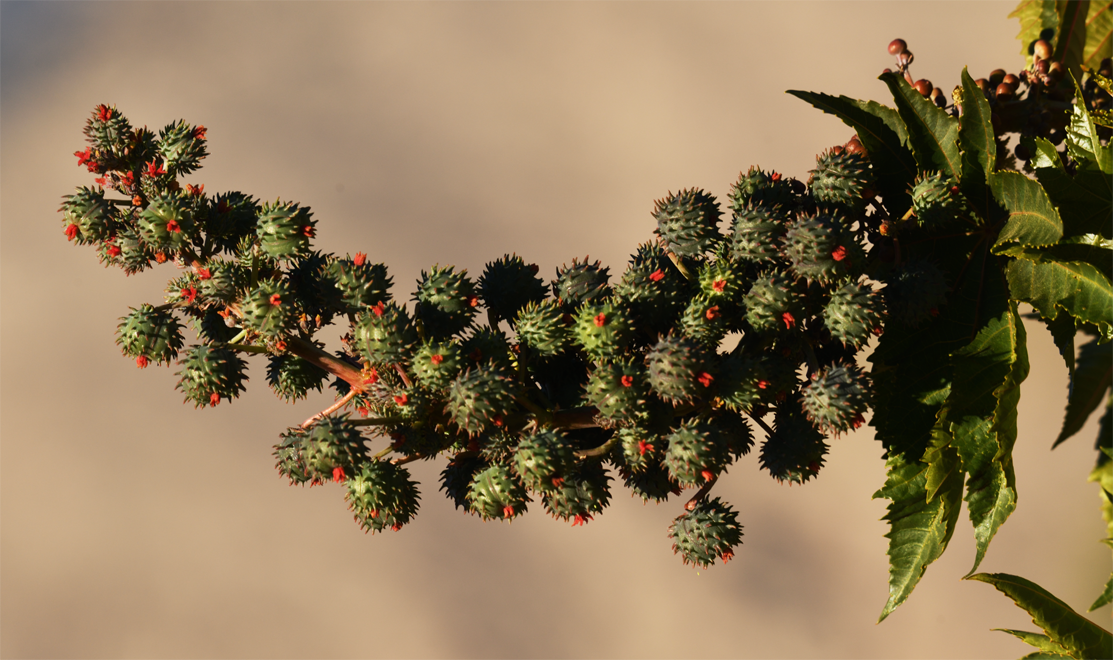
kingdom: Plantae
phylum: Tracheophyta
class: Magnoliopsida
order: Malpighiales
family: Euphorbiaceae
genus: Ricinus
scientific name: Ricinus communis
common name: Castor-oil-plant
